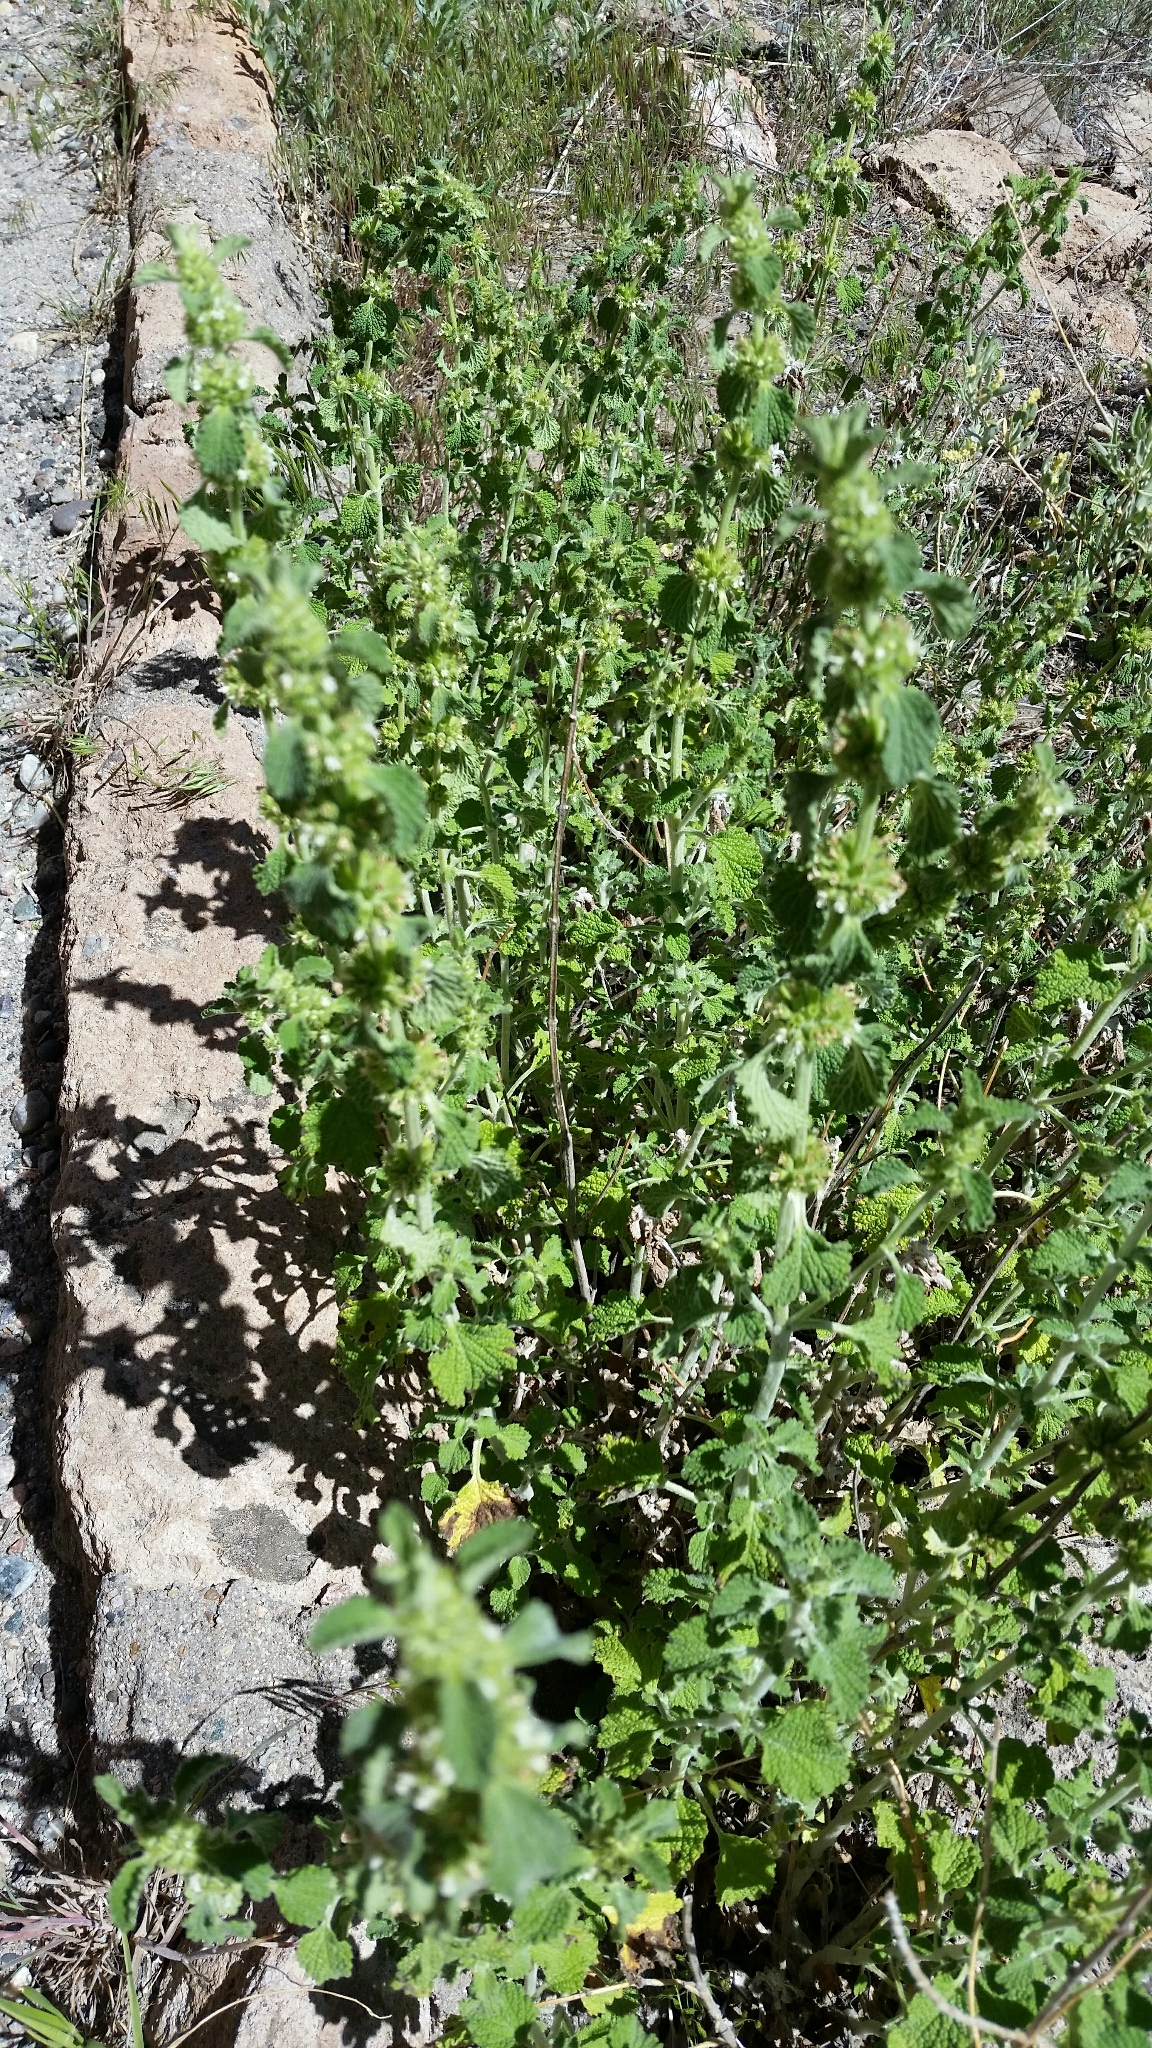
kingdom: Plantae
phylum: Tracheophyta
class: Magnoliopsida
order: Lamiales
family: Lamiaceae
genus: Marrubium
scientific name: Marrubium vulgare
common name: Horehound
